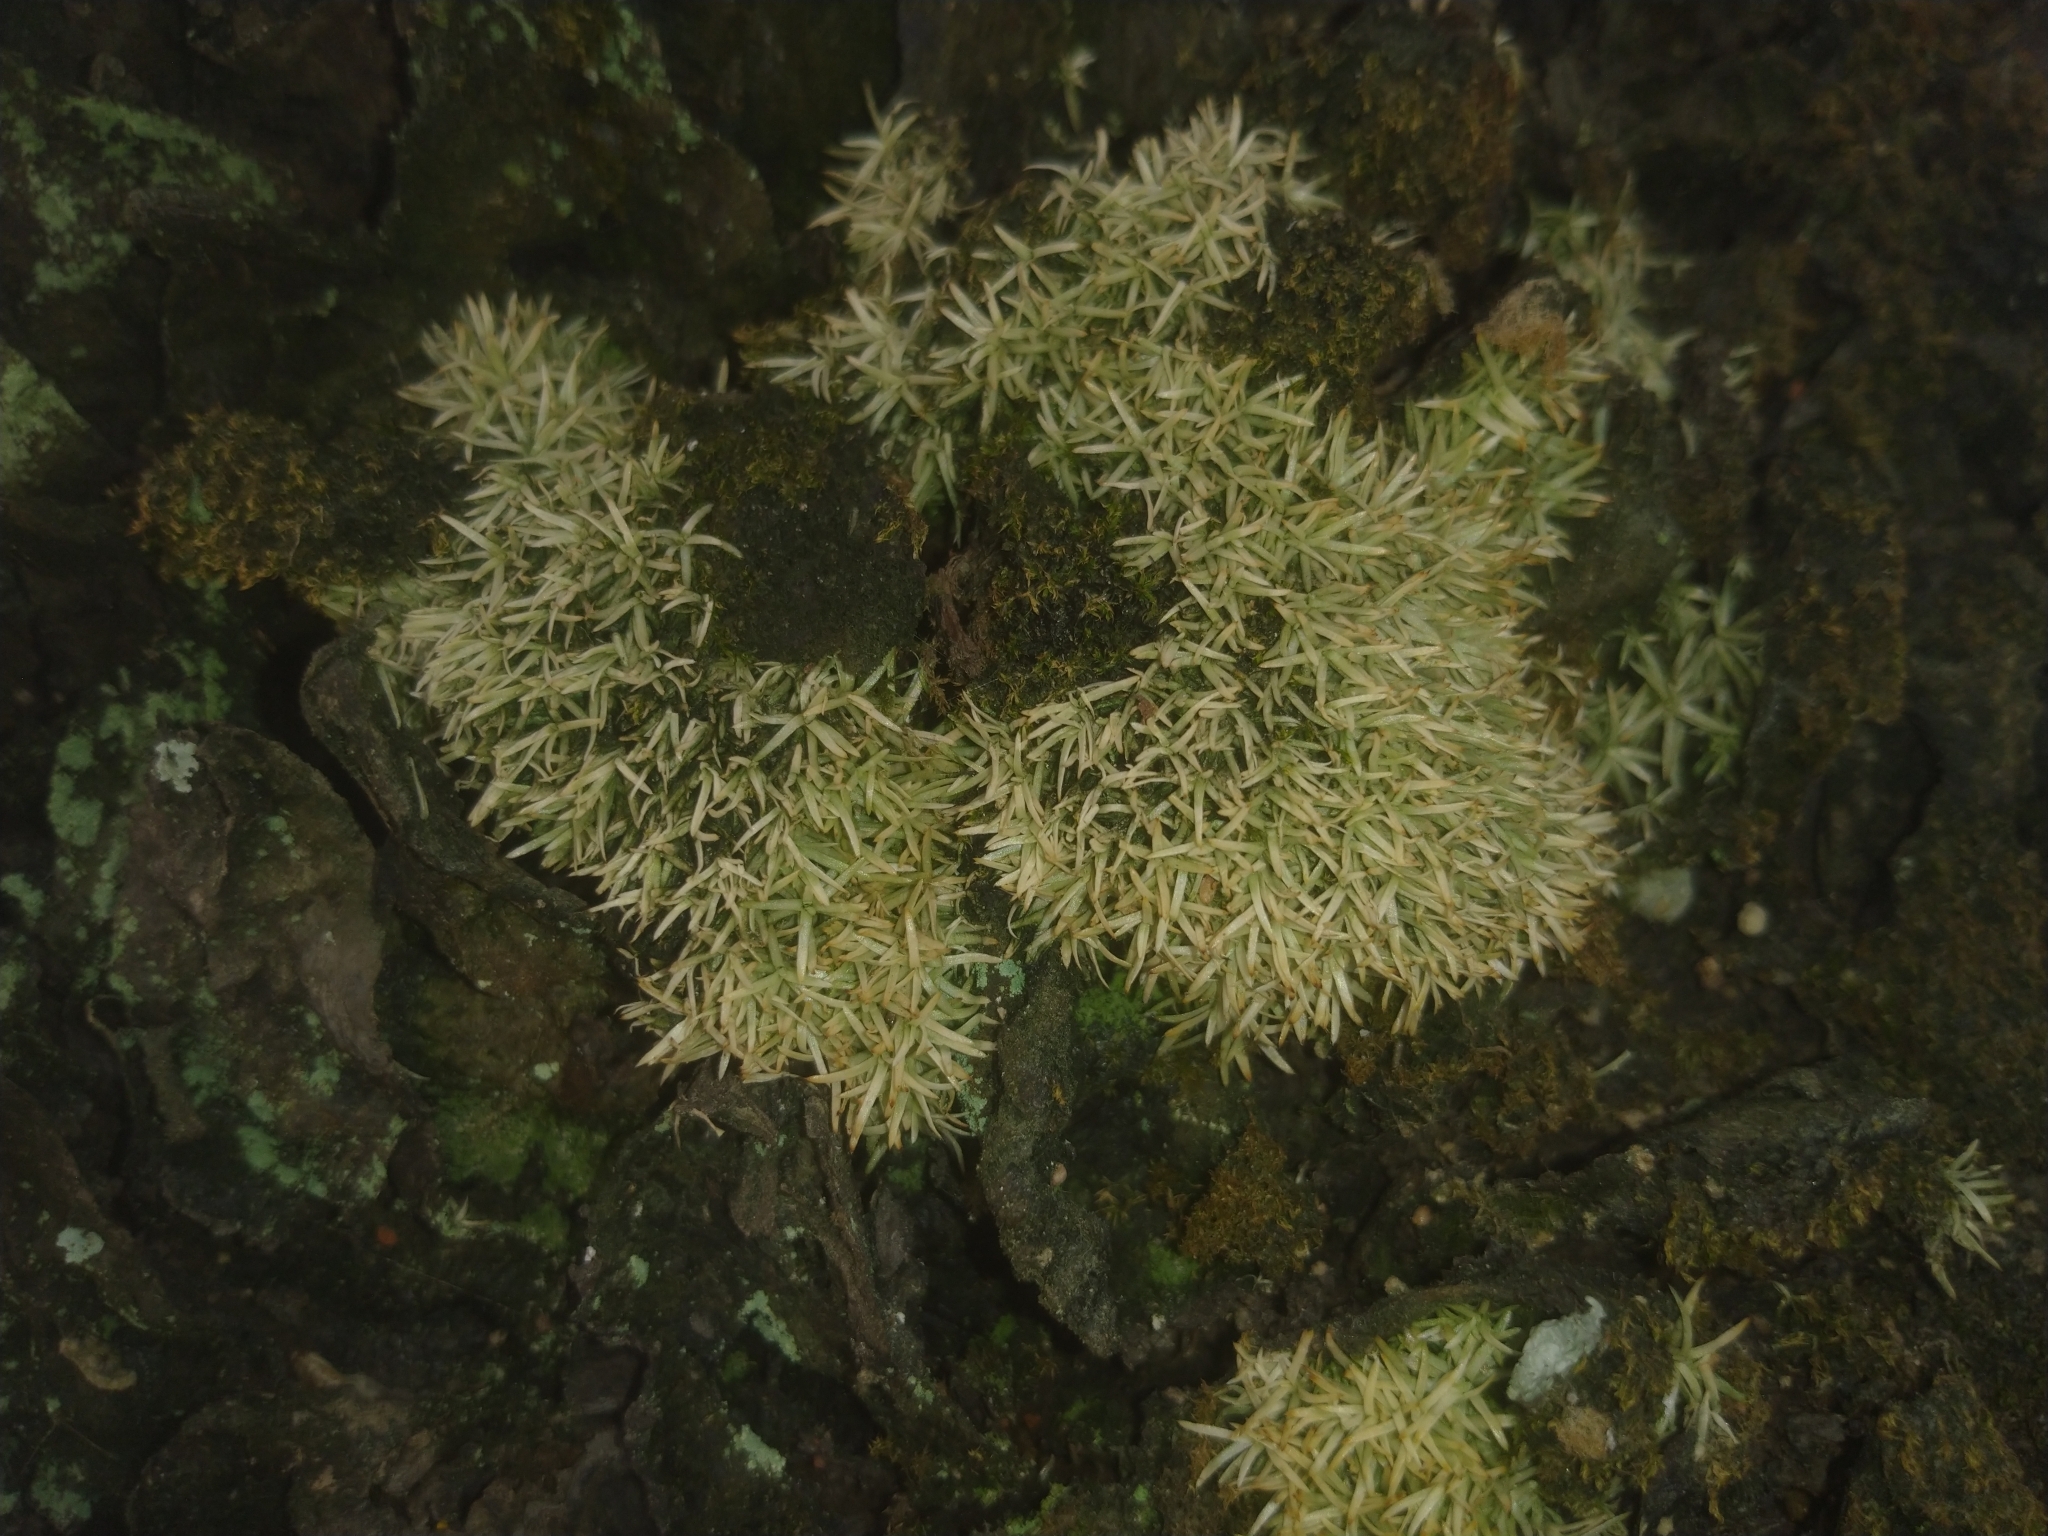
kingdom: Plantae
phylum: Bryophyta
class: Bryopsida
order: Dicranales
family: Octoblepharaceae
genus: Octoblepharum
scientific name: Octoblepharum albidum
